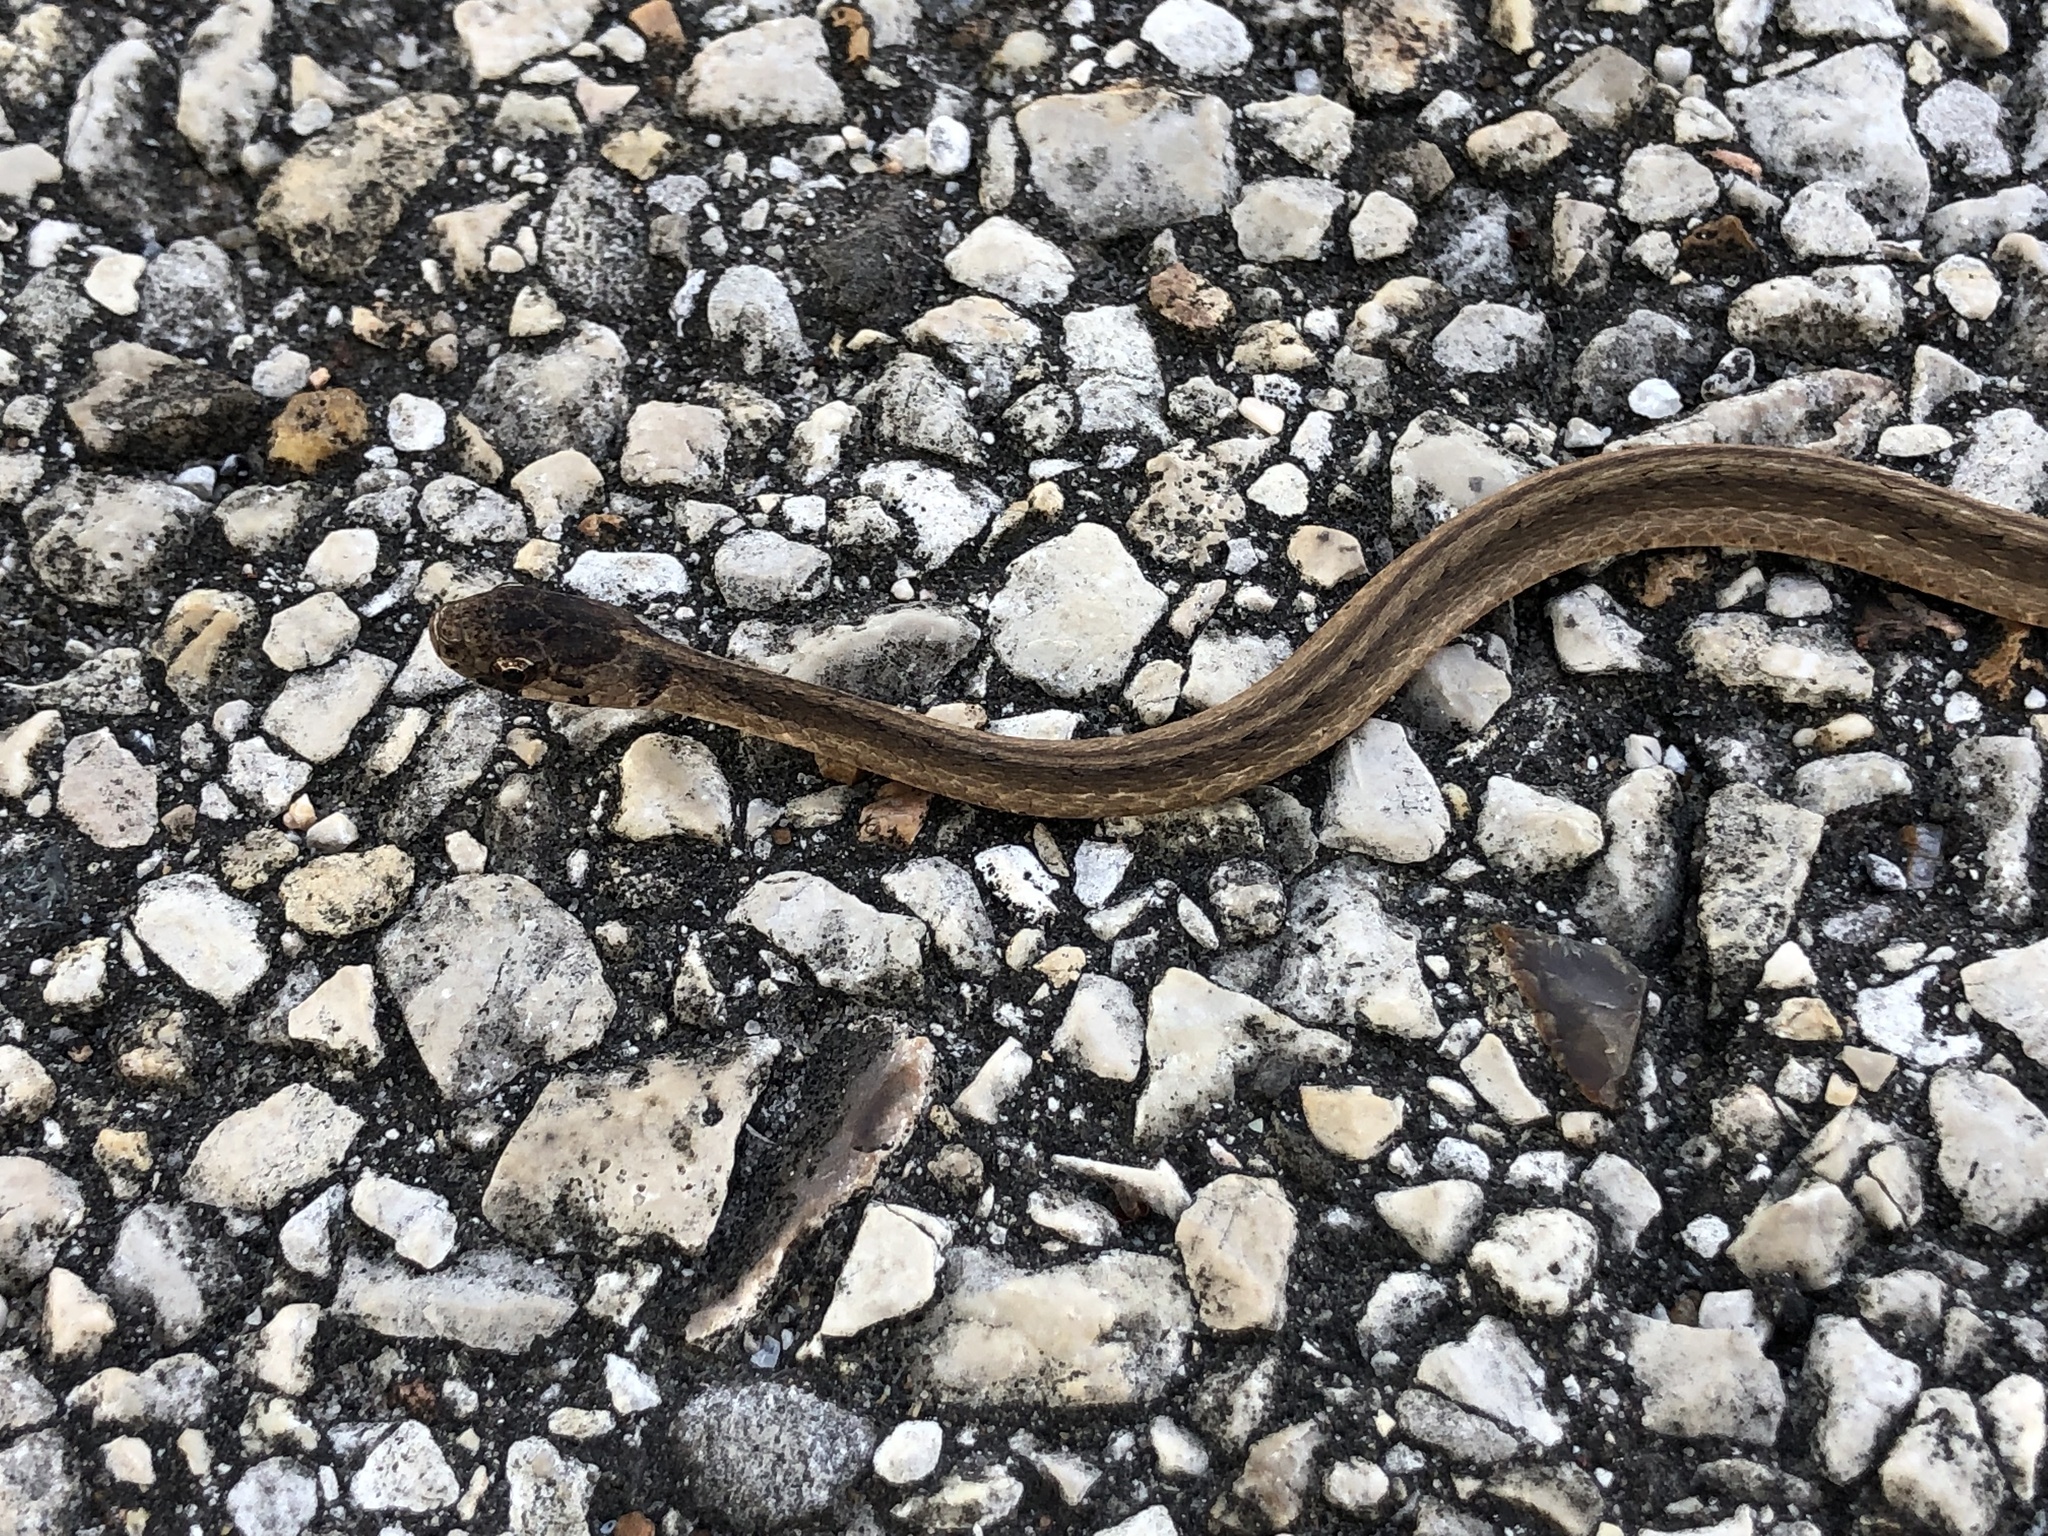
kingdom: Animalia
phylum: Chordata
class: Squamata
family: Colubridae
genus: Storeria
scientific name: Storeria dekayi
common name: (dekay’s) brown snake
